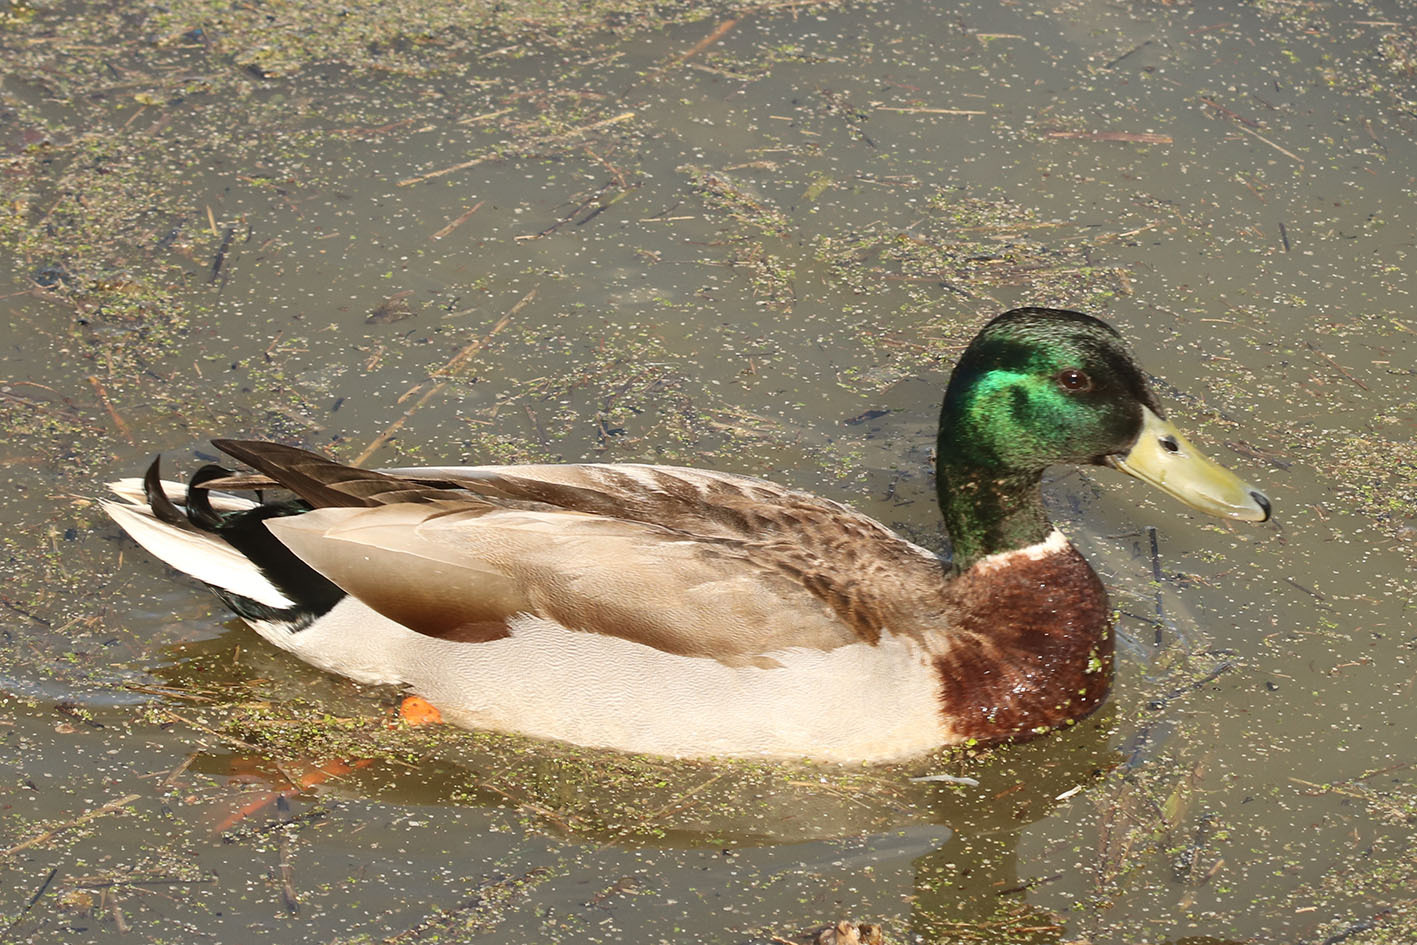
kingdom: Animalia
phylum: Chordata
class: Aves
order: Anseriformes
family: Anatidae
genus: Anas
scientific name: Anas platyrhynchos
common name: Mallard
